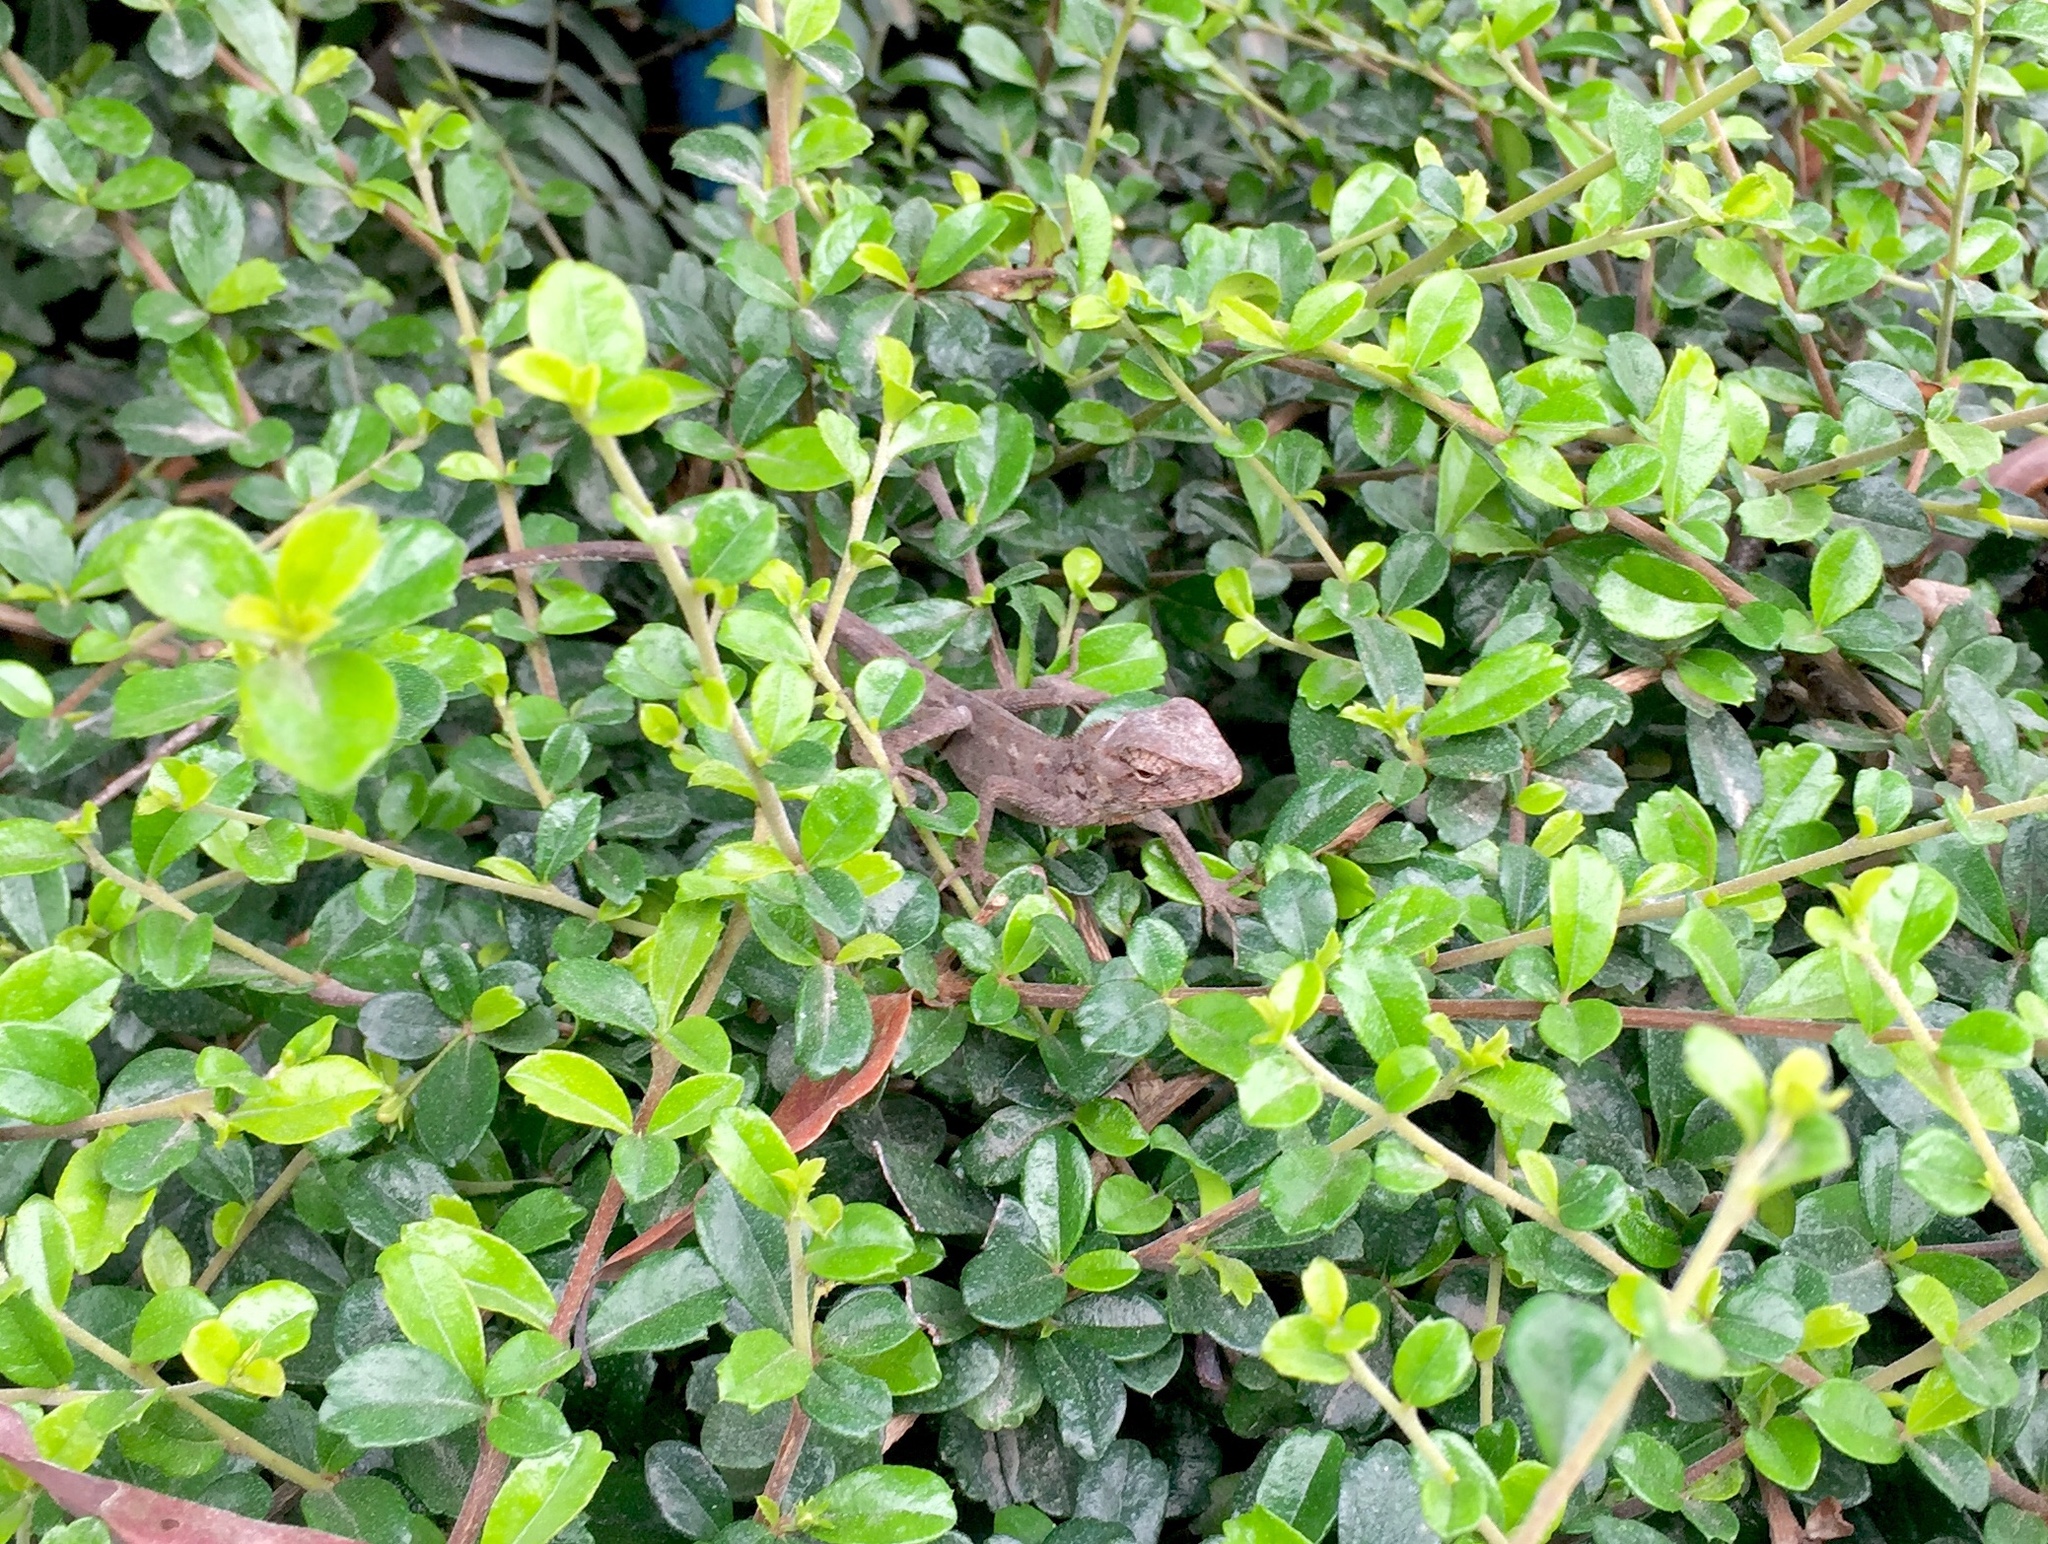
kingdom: Animalia
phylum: Chordata
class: Squamata
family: Agamidae
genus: Calotes
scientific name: Calotes versicolor
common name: Oriental garden lizard
